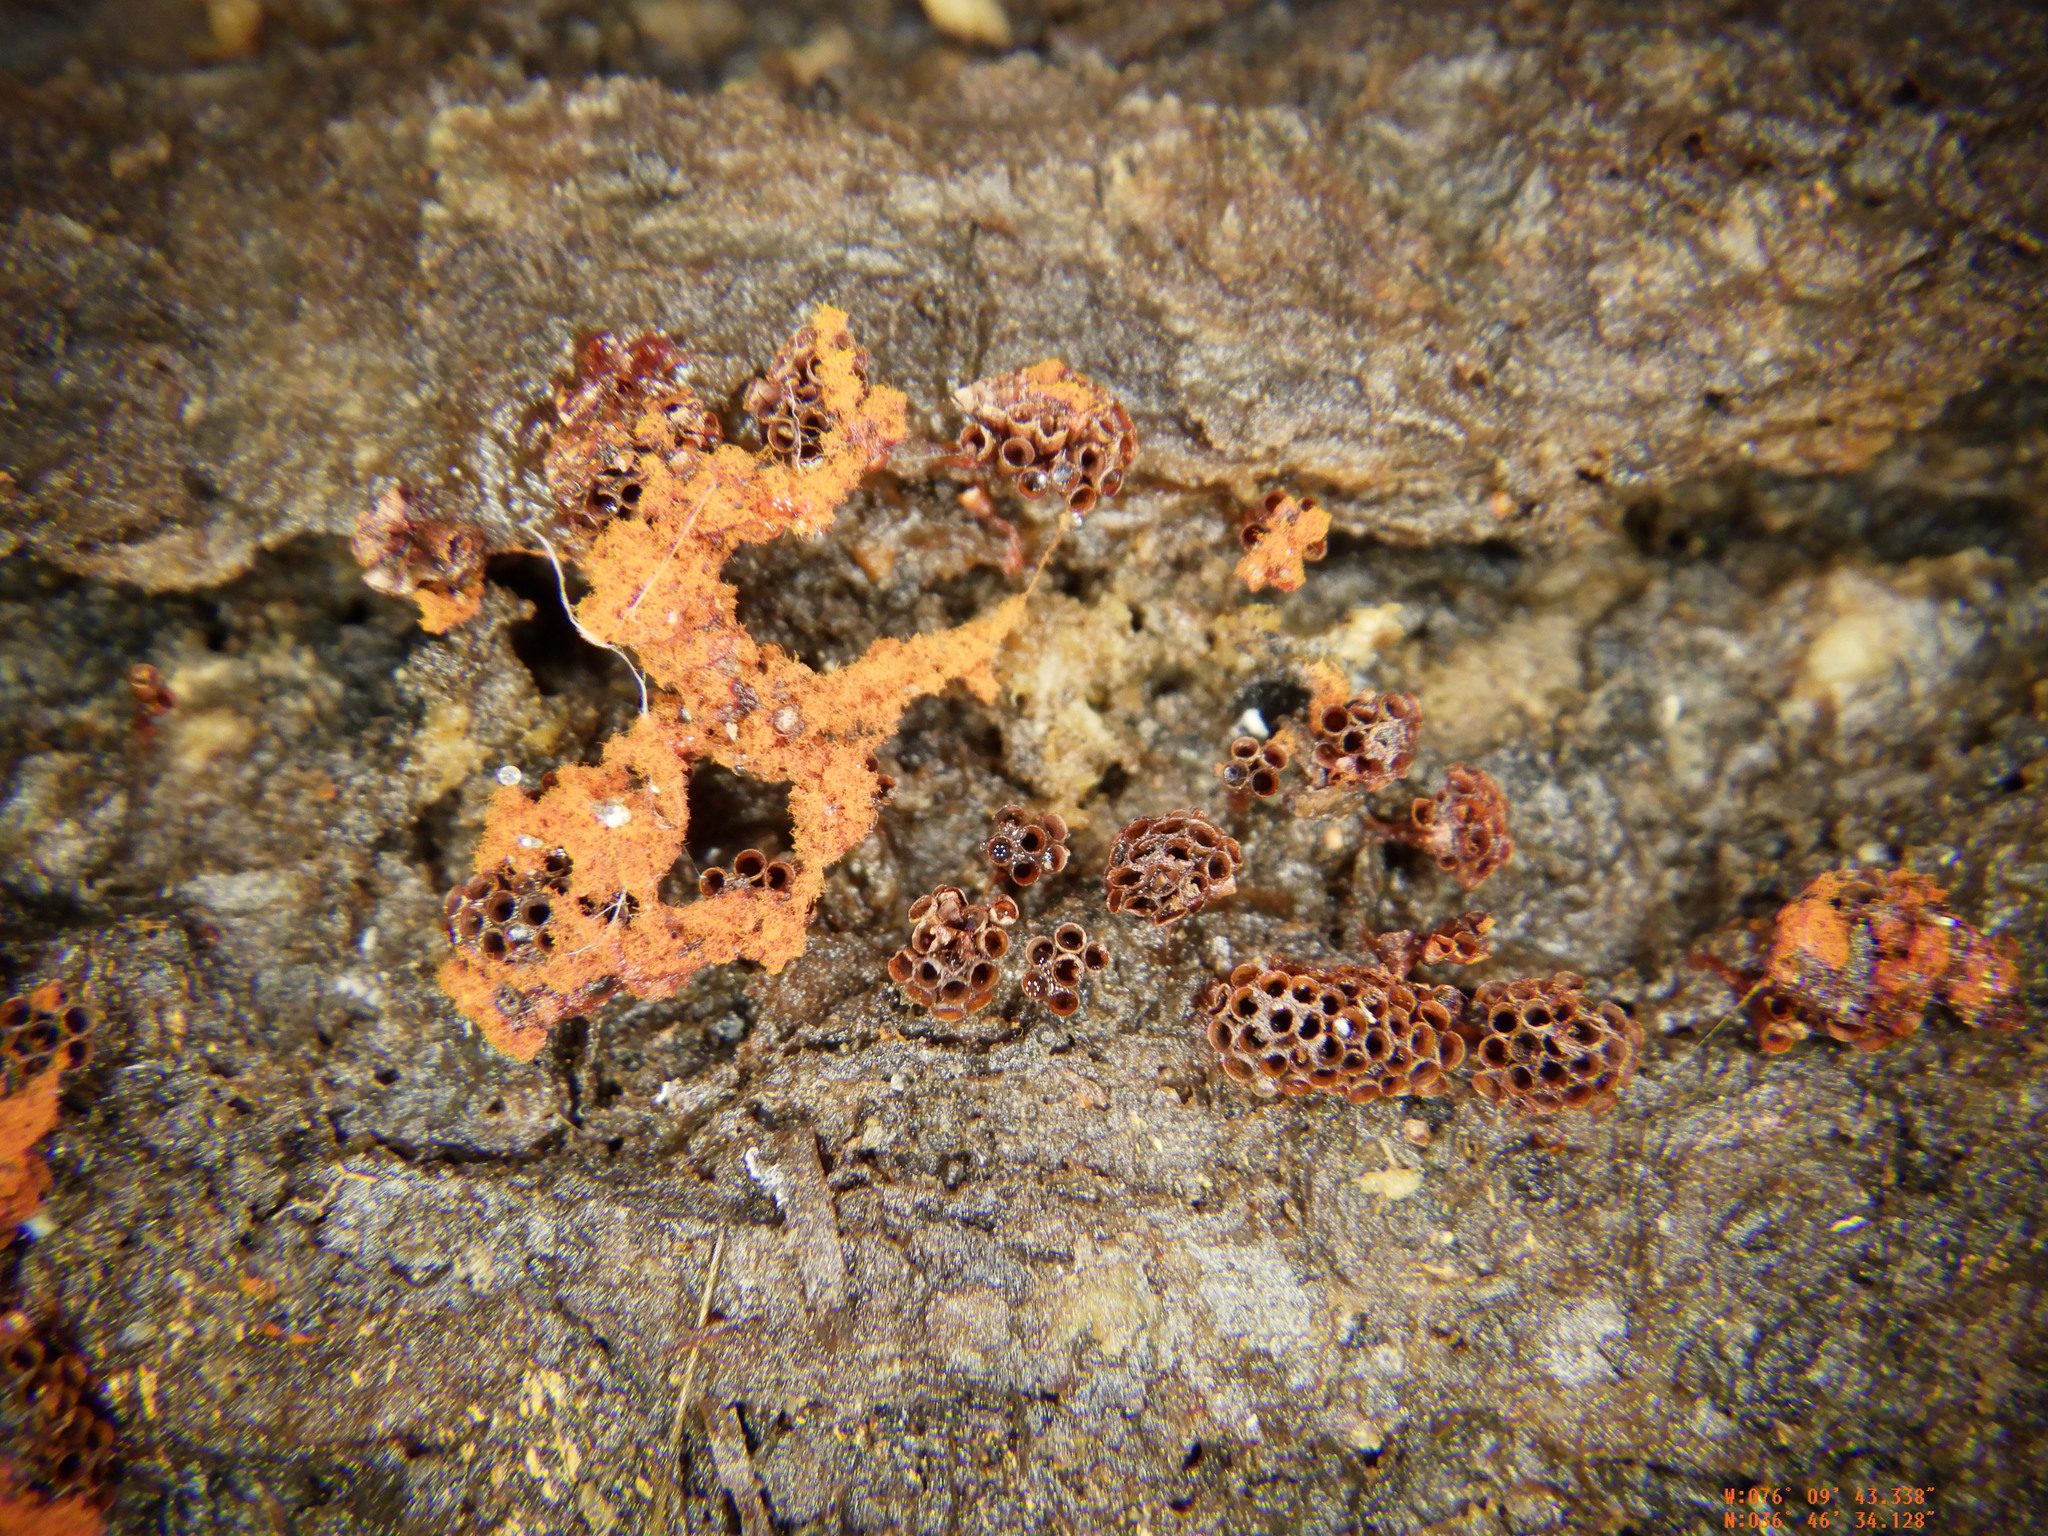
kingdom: Protozoa
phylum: Mycetozoa
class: Myxomycetes
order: Trichiales
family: Trichiaceae
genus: Metatrichia
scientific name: Metatrichia vesparia
